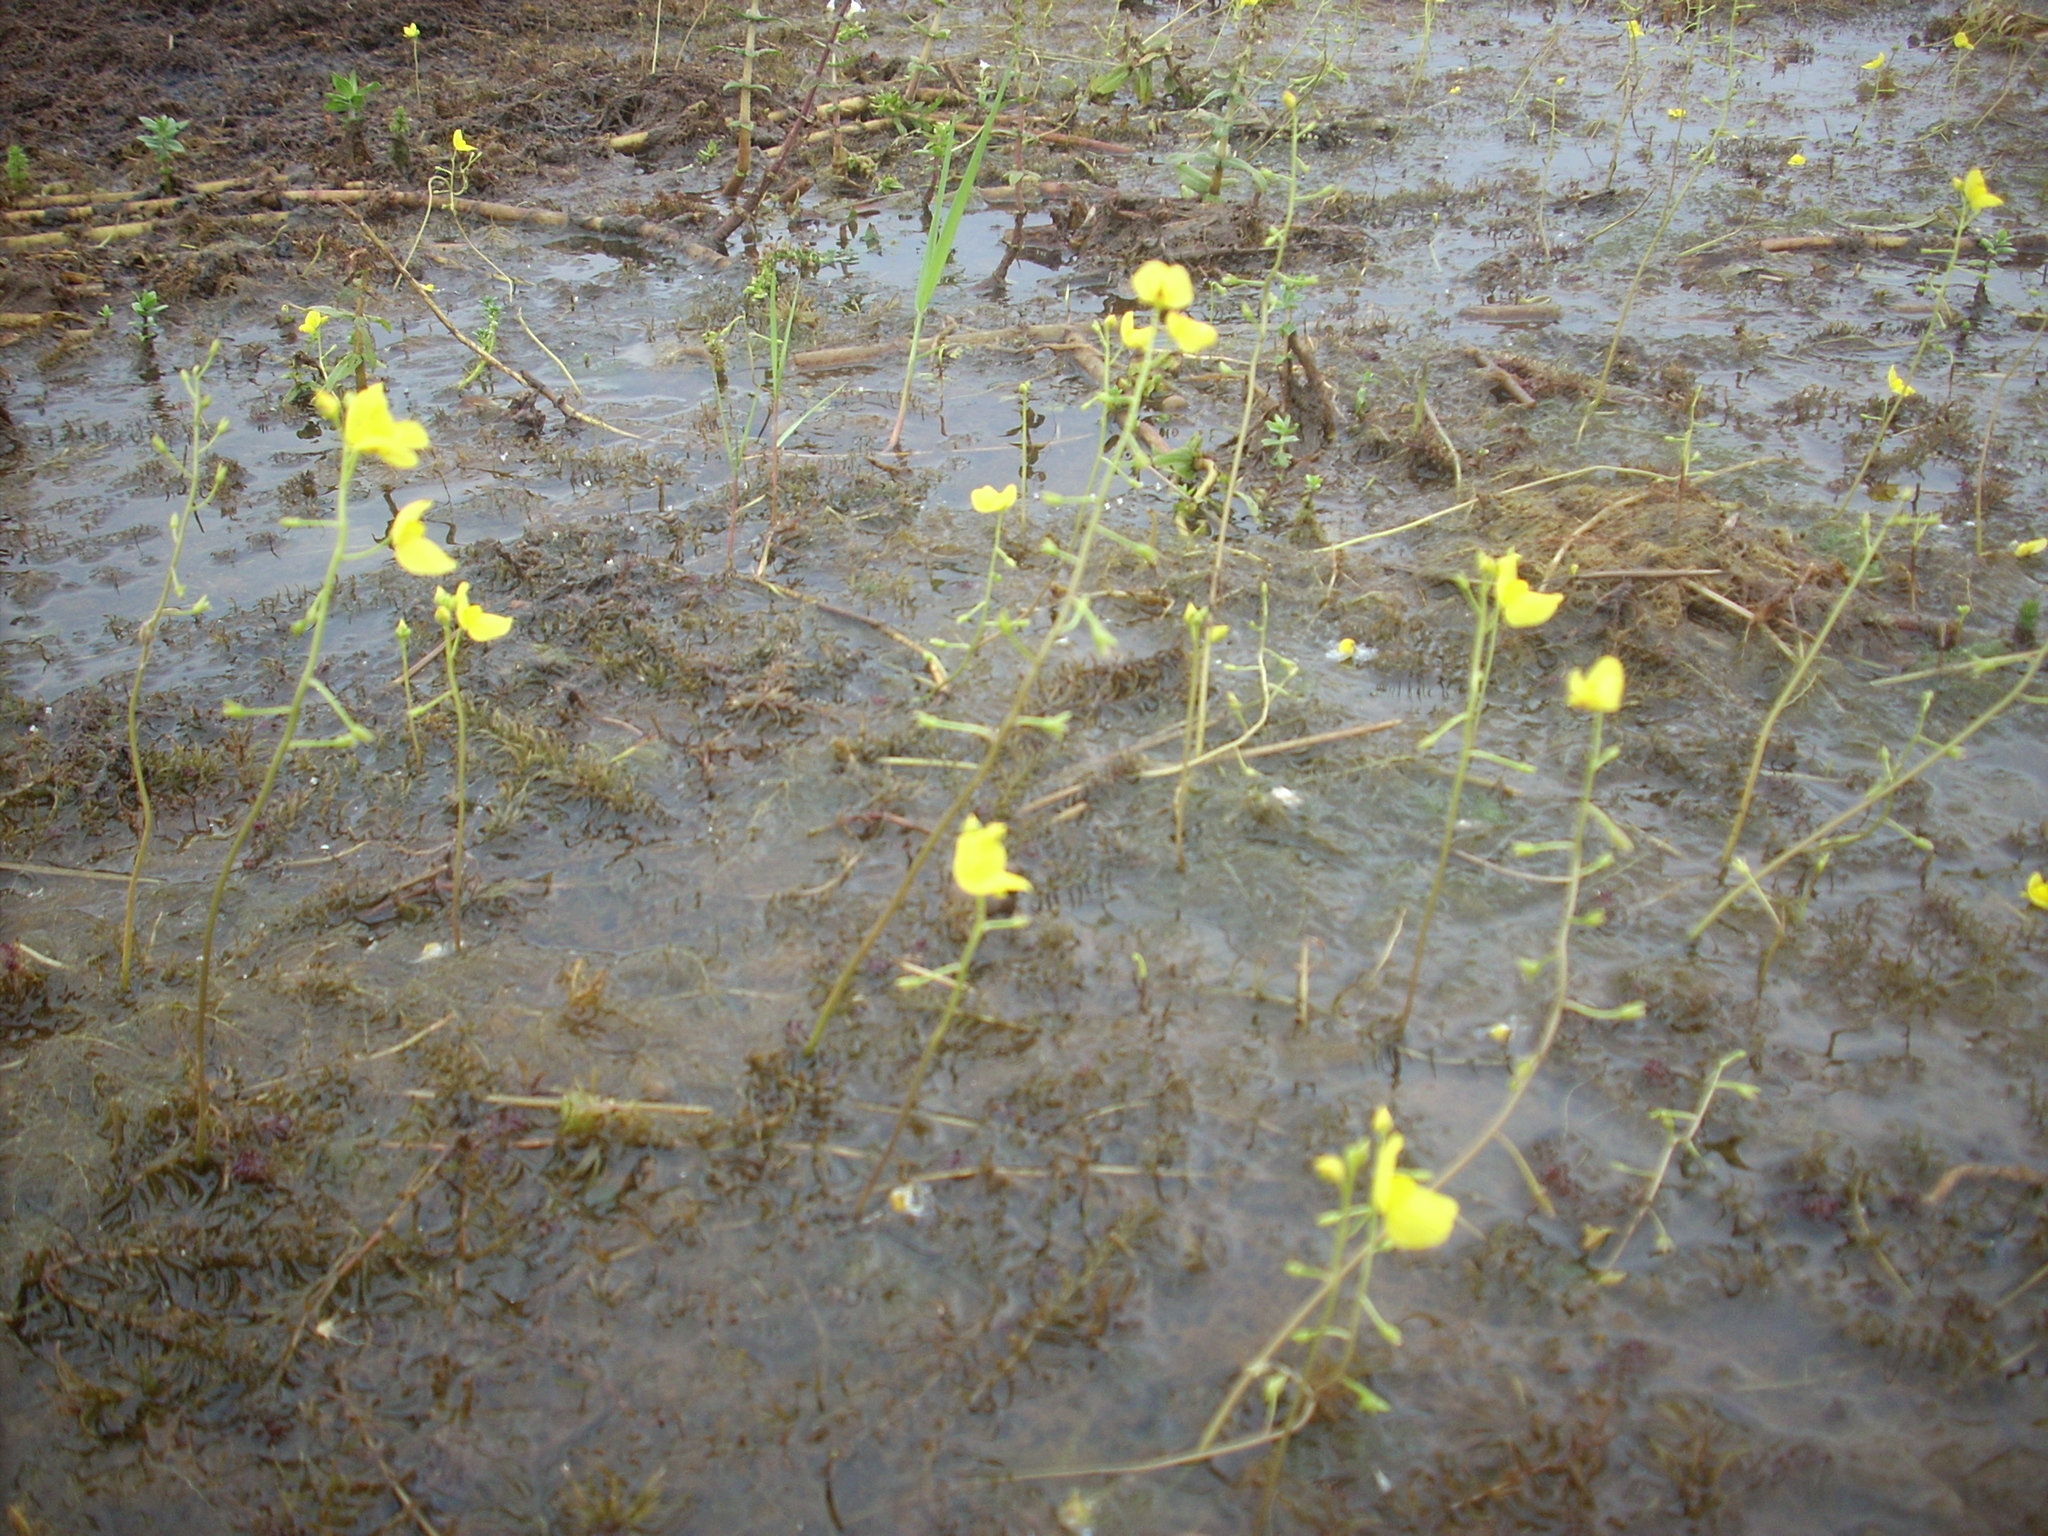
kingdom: Plantae
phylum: Tracheophyta
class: Magnoliopsida
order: Lamiales
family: Lentibulariaceae
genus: Utricularia
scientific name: Utricularia aurea
